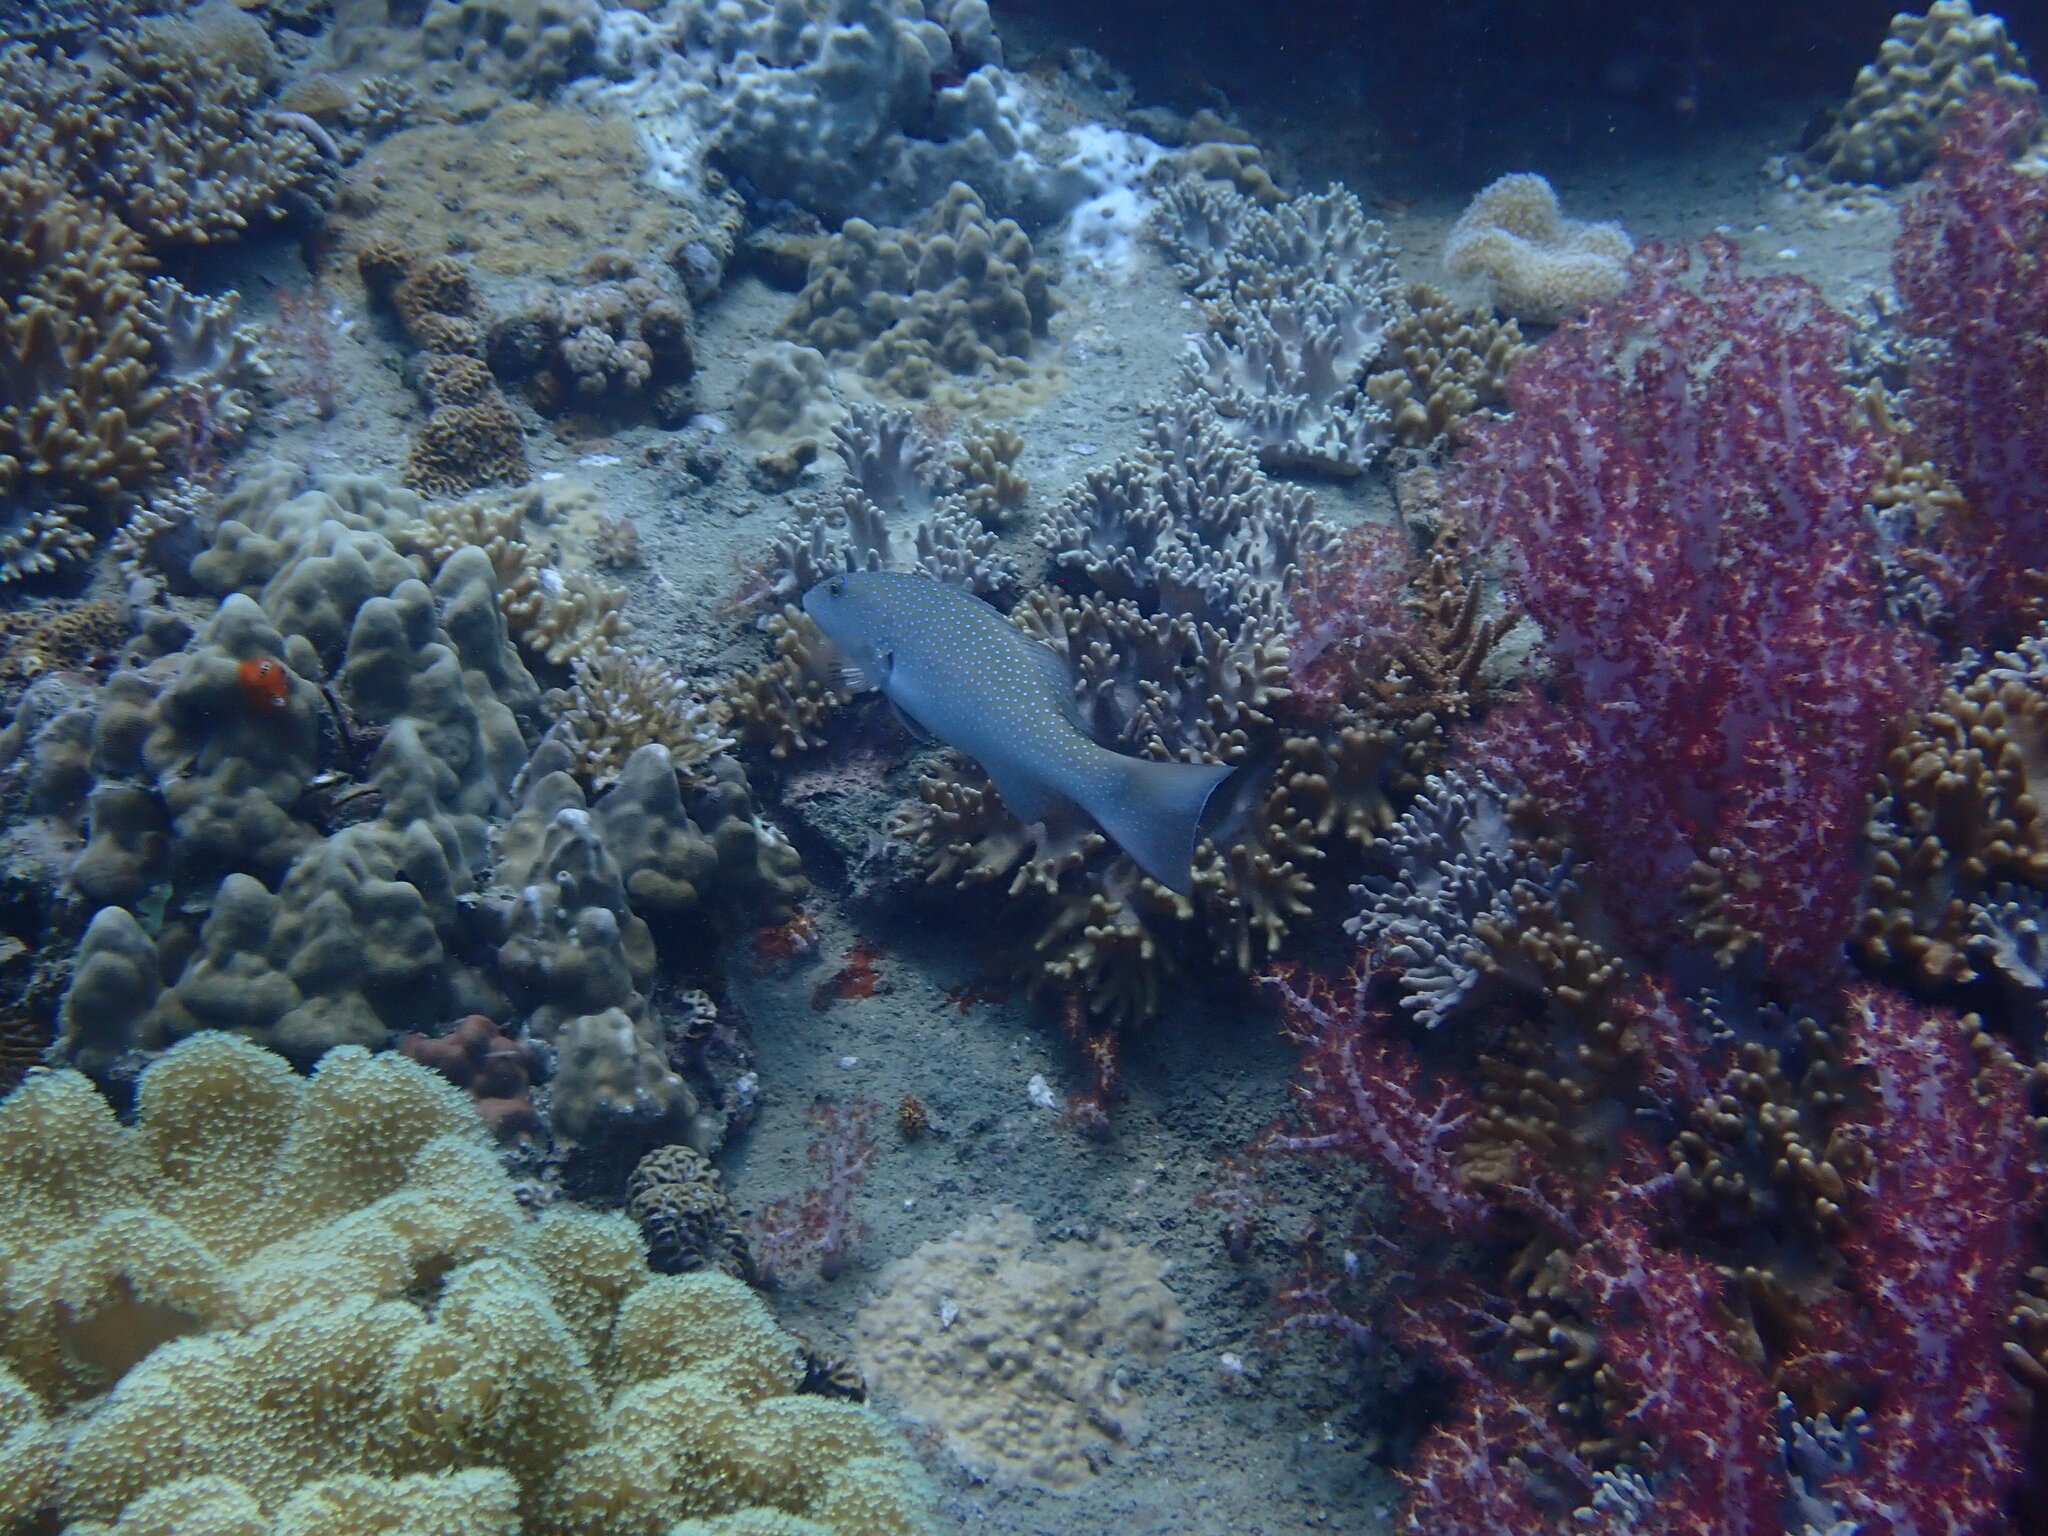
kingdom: Animalia
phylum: Chordata
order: Perciformes
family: Serranidae
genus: Plectropomus
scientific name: Plectropomus leopardus
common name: Coral trout
